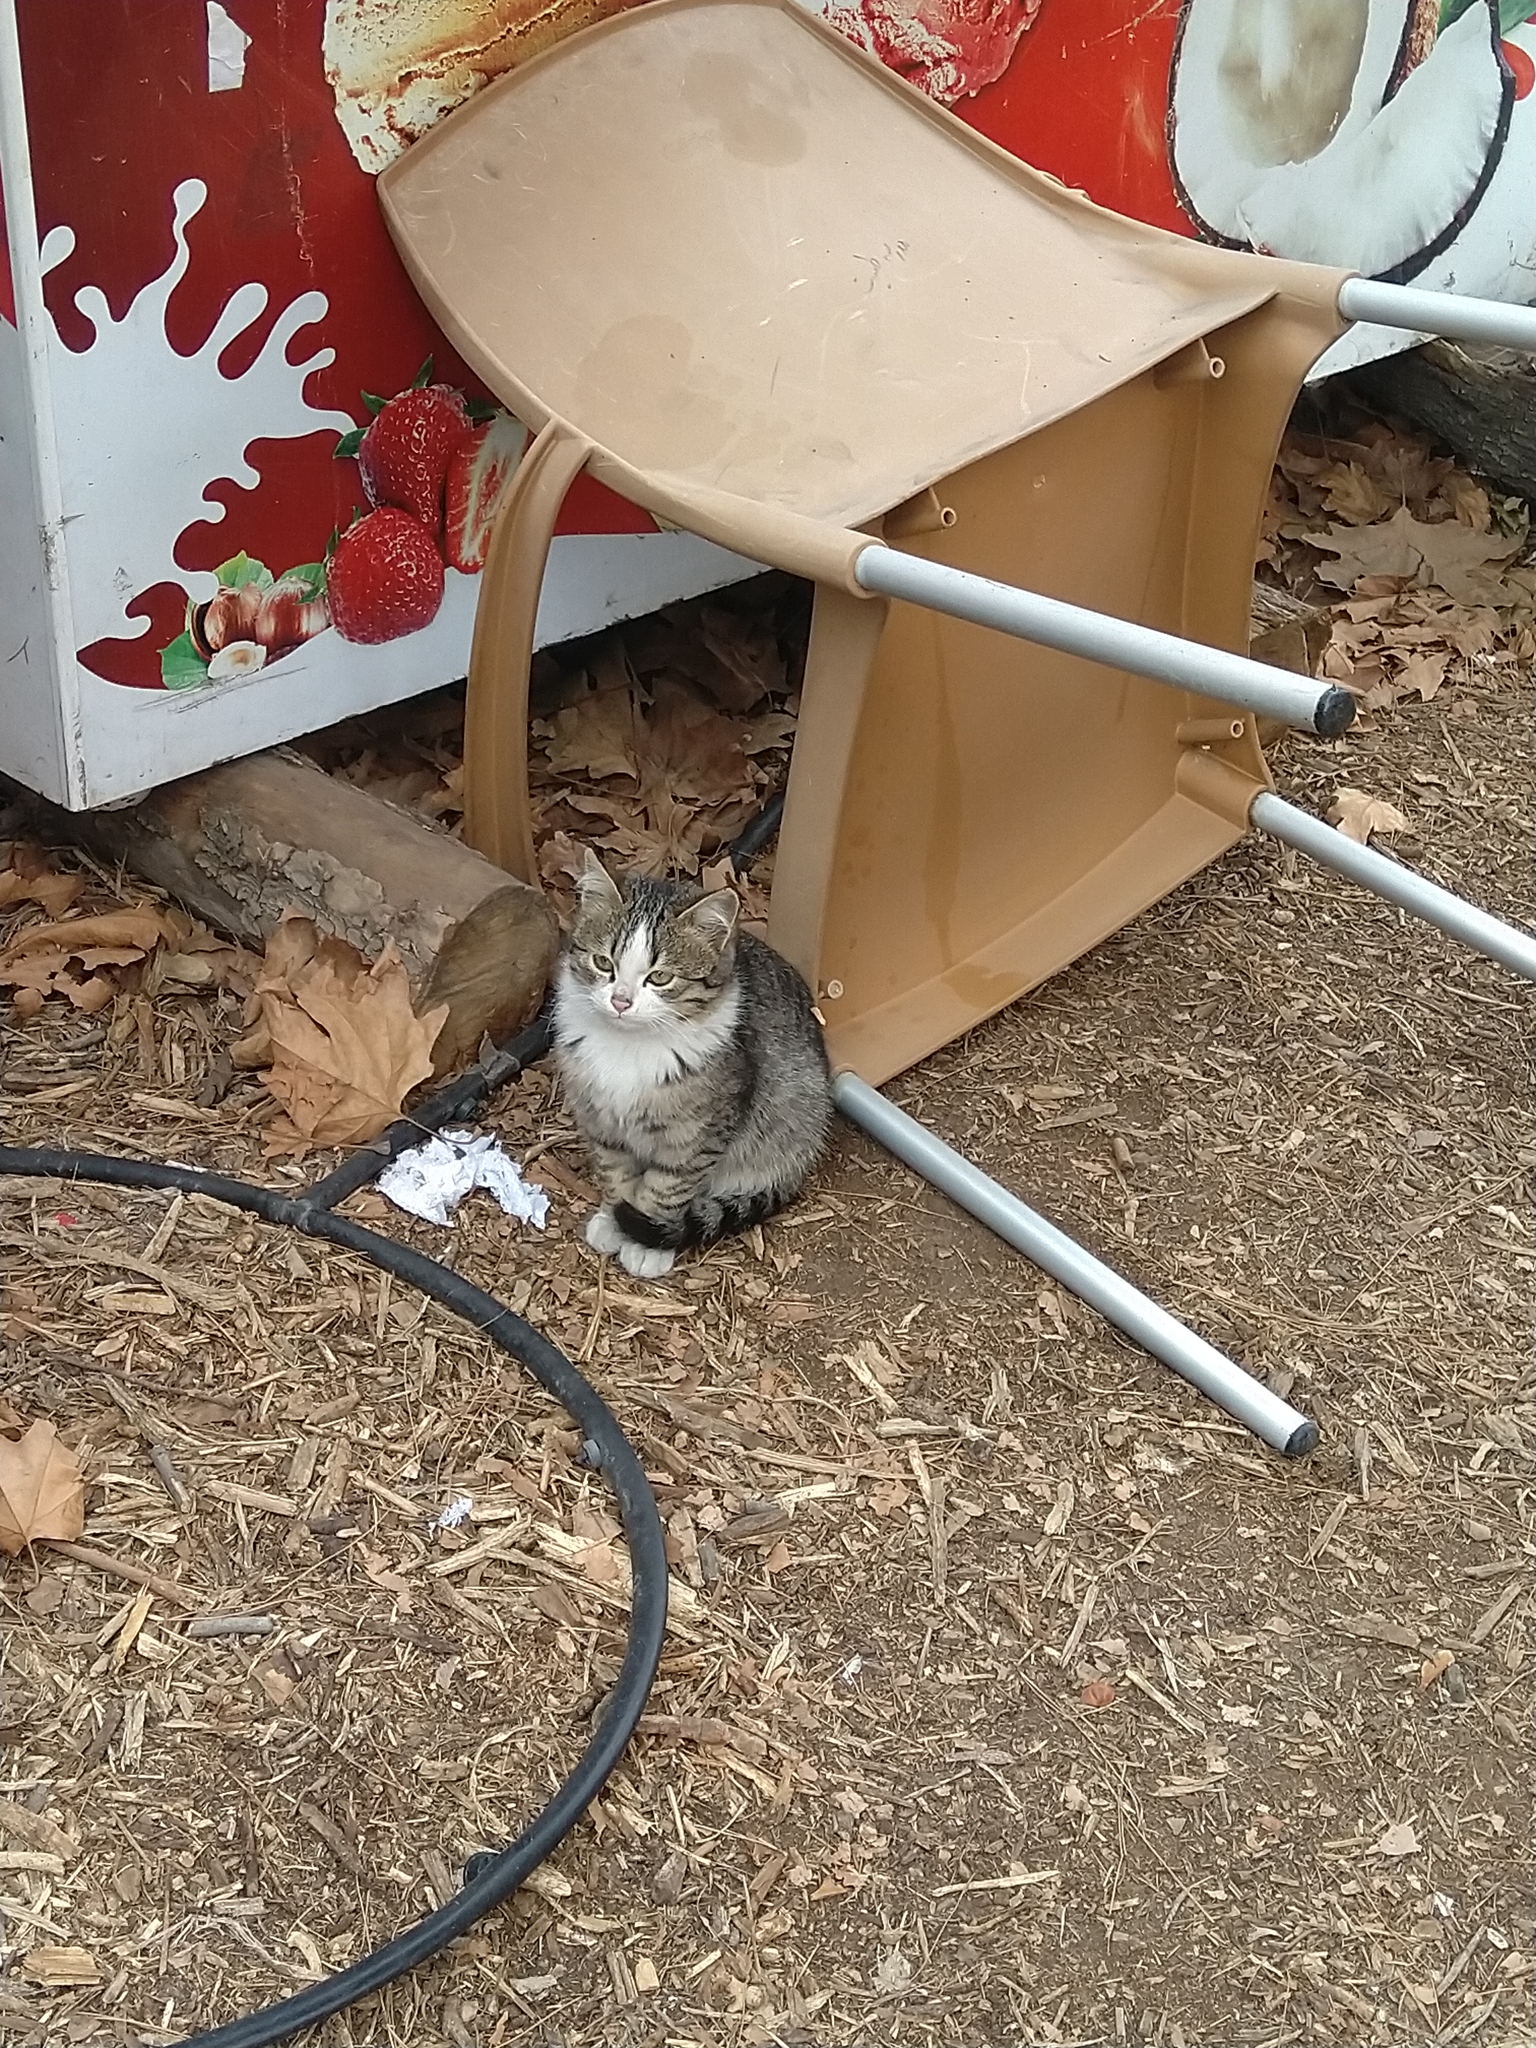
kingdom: Animalia
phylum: Chordata
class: Mammalia
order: Carnivora
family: Felidae
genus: Felis
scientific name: Felis catus
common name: Domestic cat
